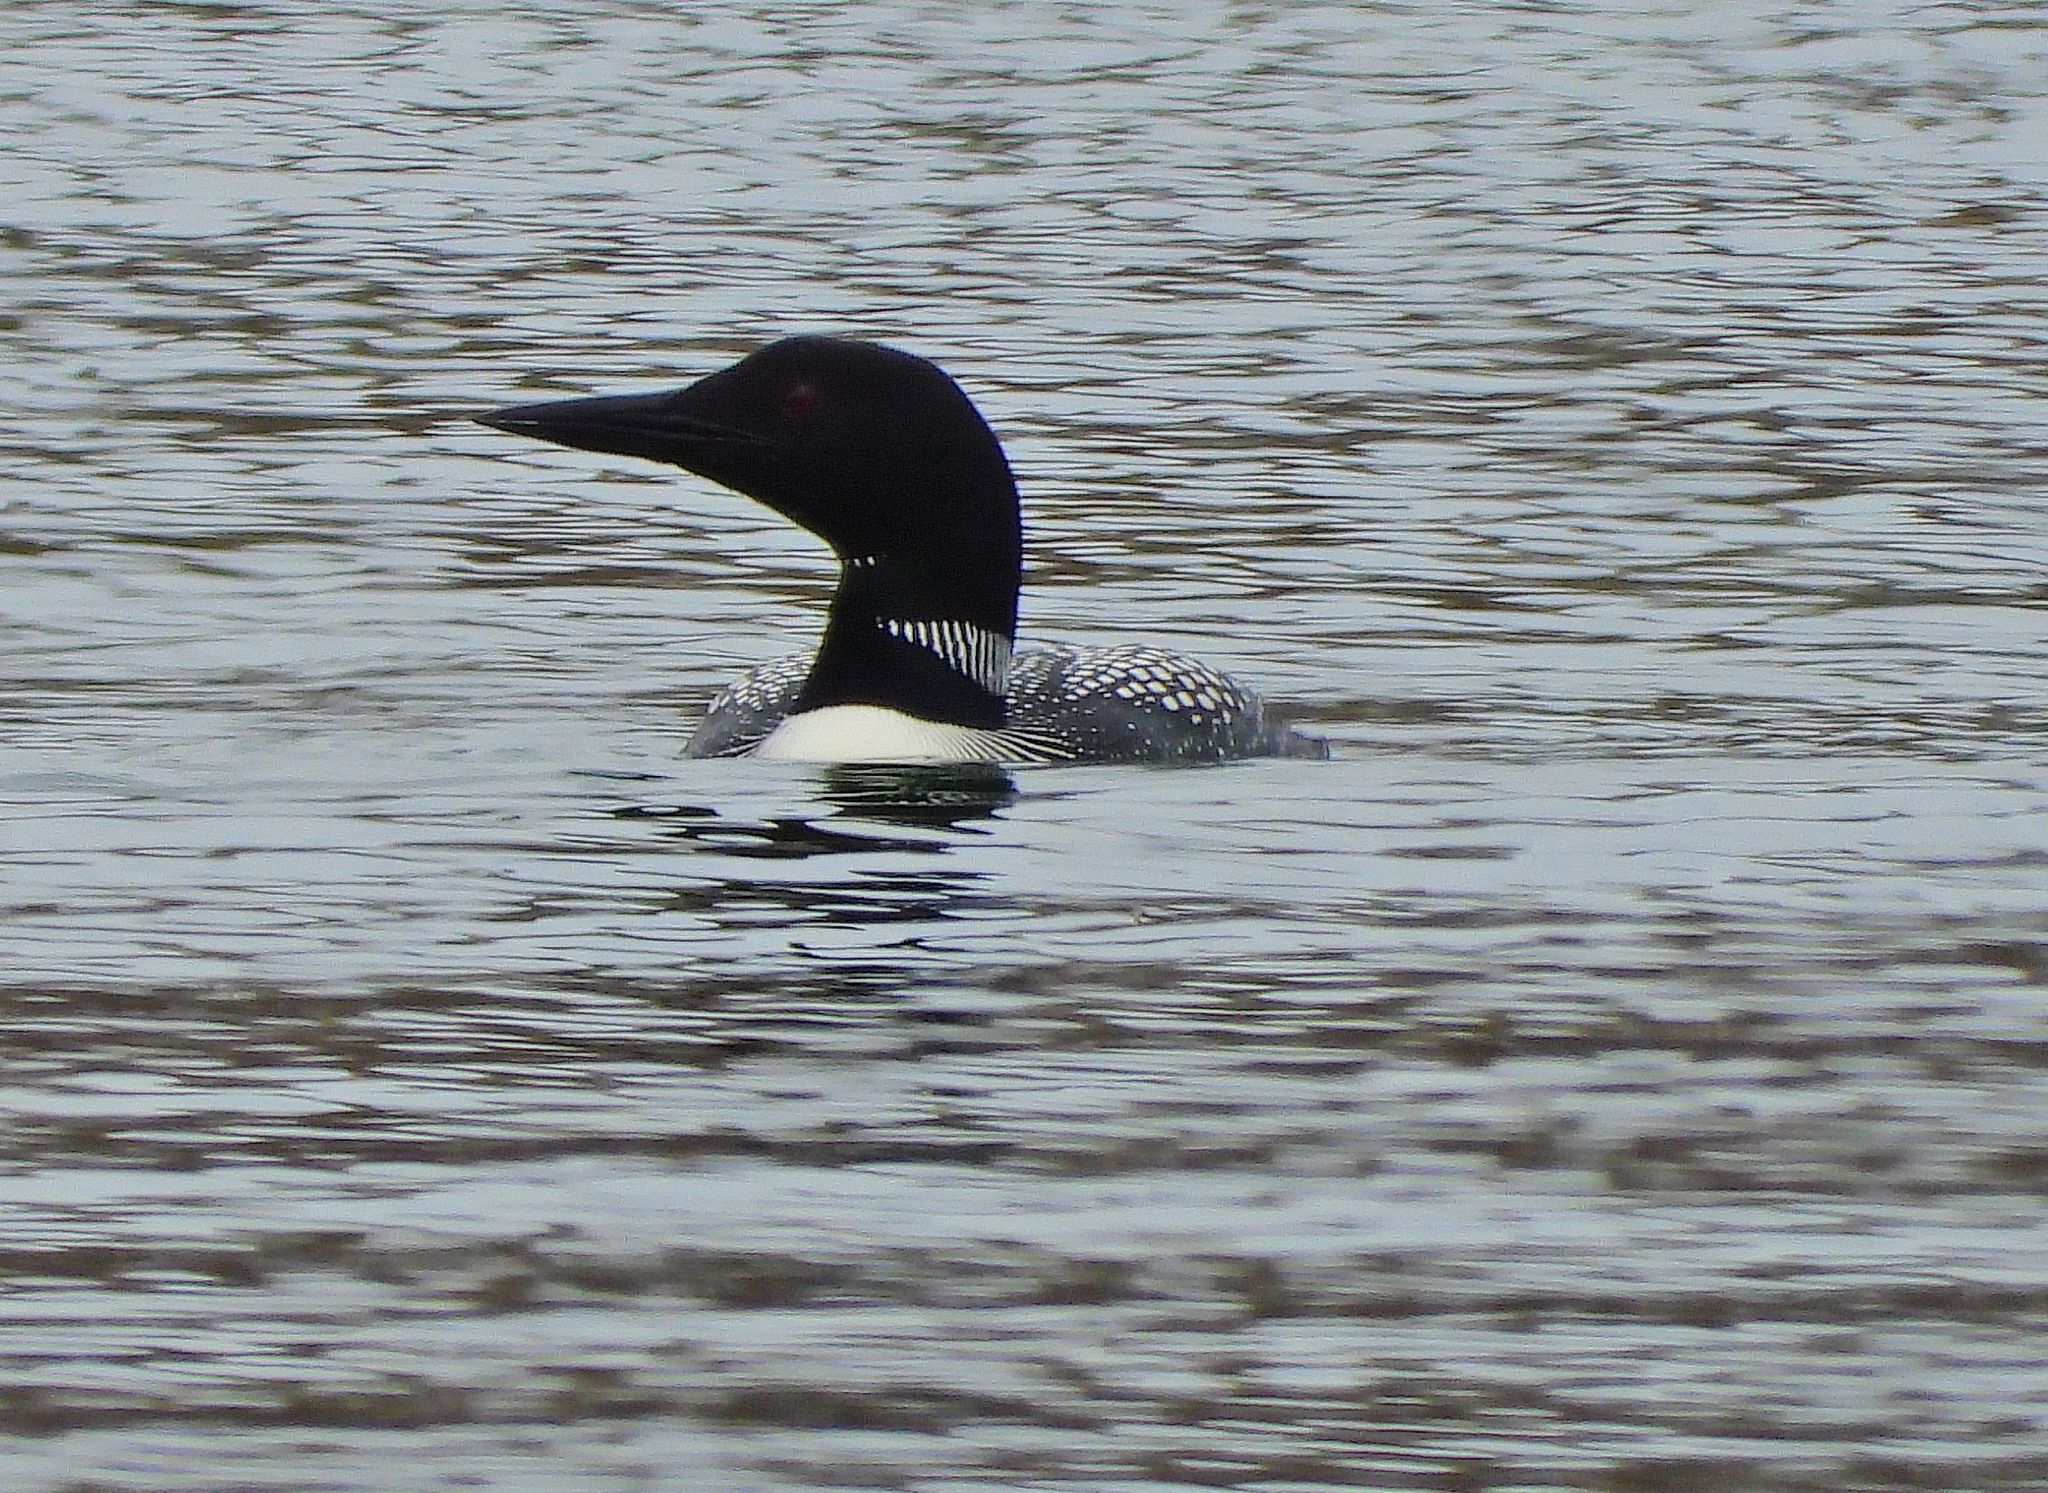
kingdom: Animalia
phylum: Chordata
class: Aves
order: Gaviiformes
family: Gaviidae
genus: Gavia
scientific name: Gavia immer
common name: Common loon
